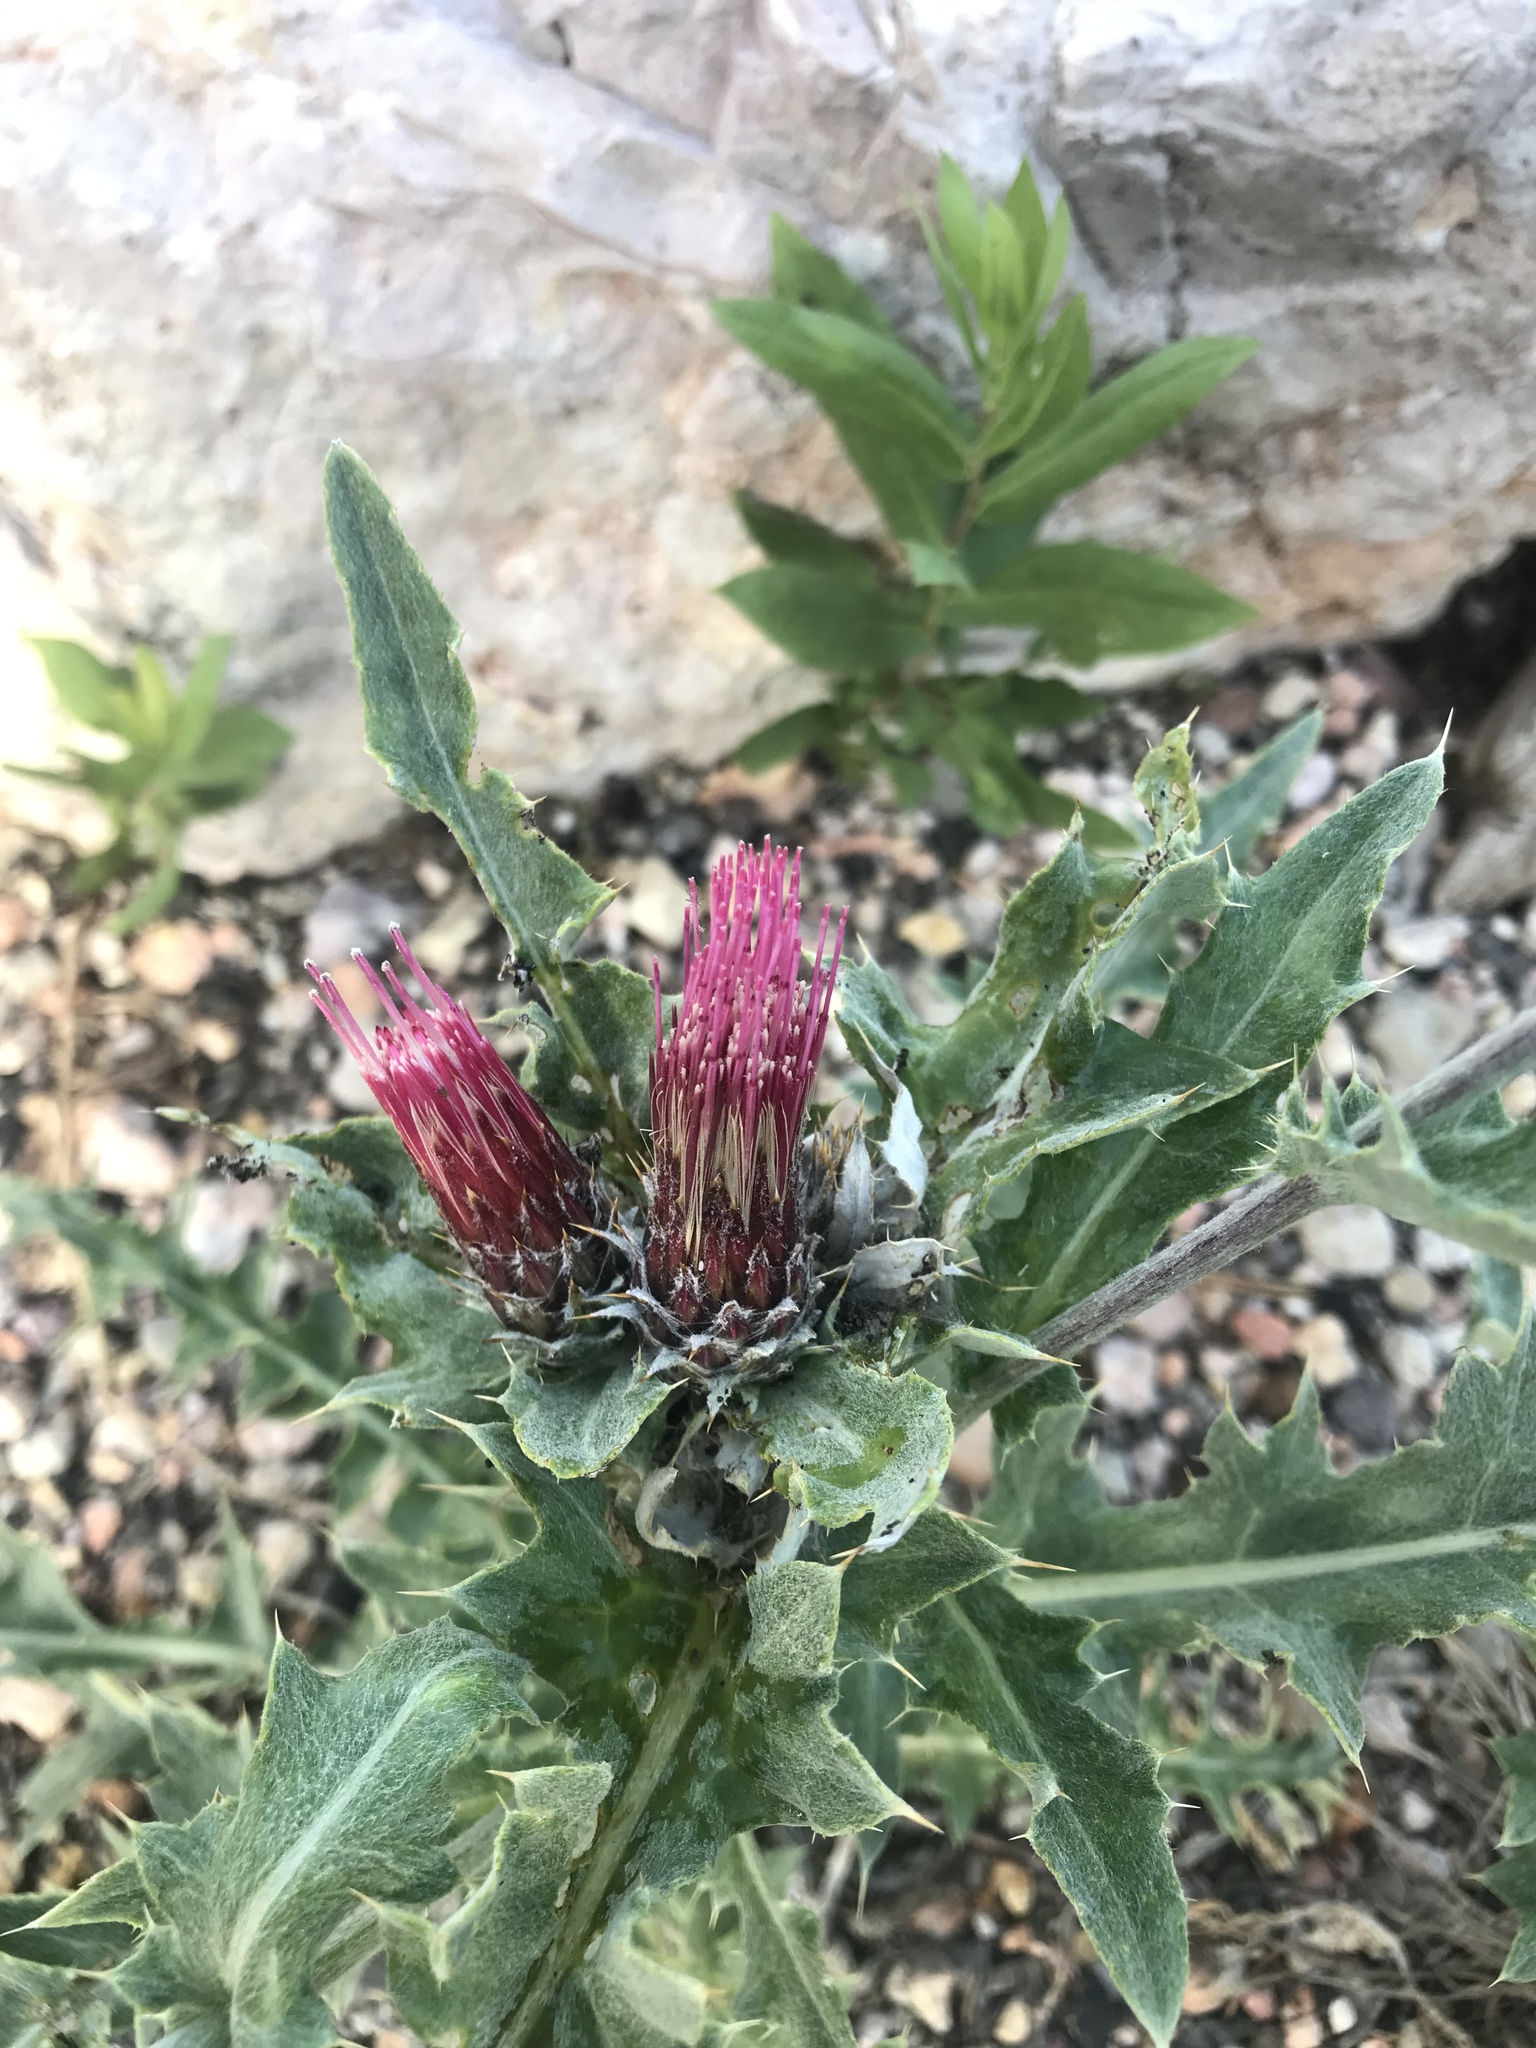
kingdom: Plantae
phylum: Tracheophyta
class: Magnoliopsida
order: Asterales
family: Asteraceae
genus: Cirsium
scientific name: Cirsium arizonicum
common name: Arizona thistle
